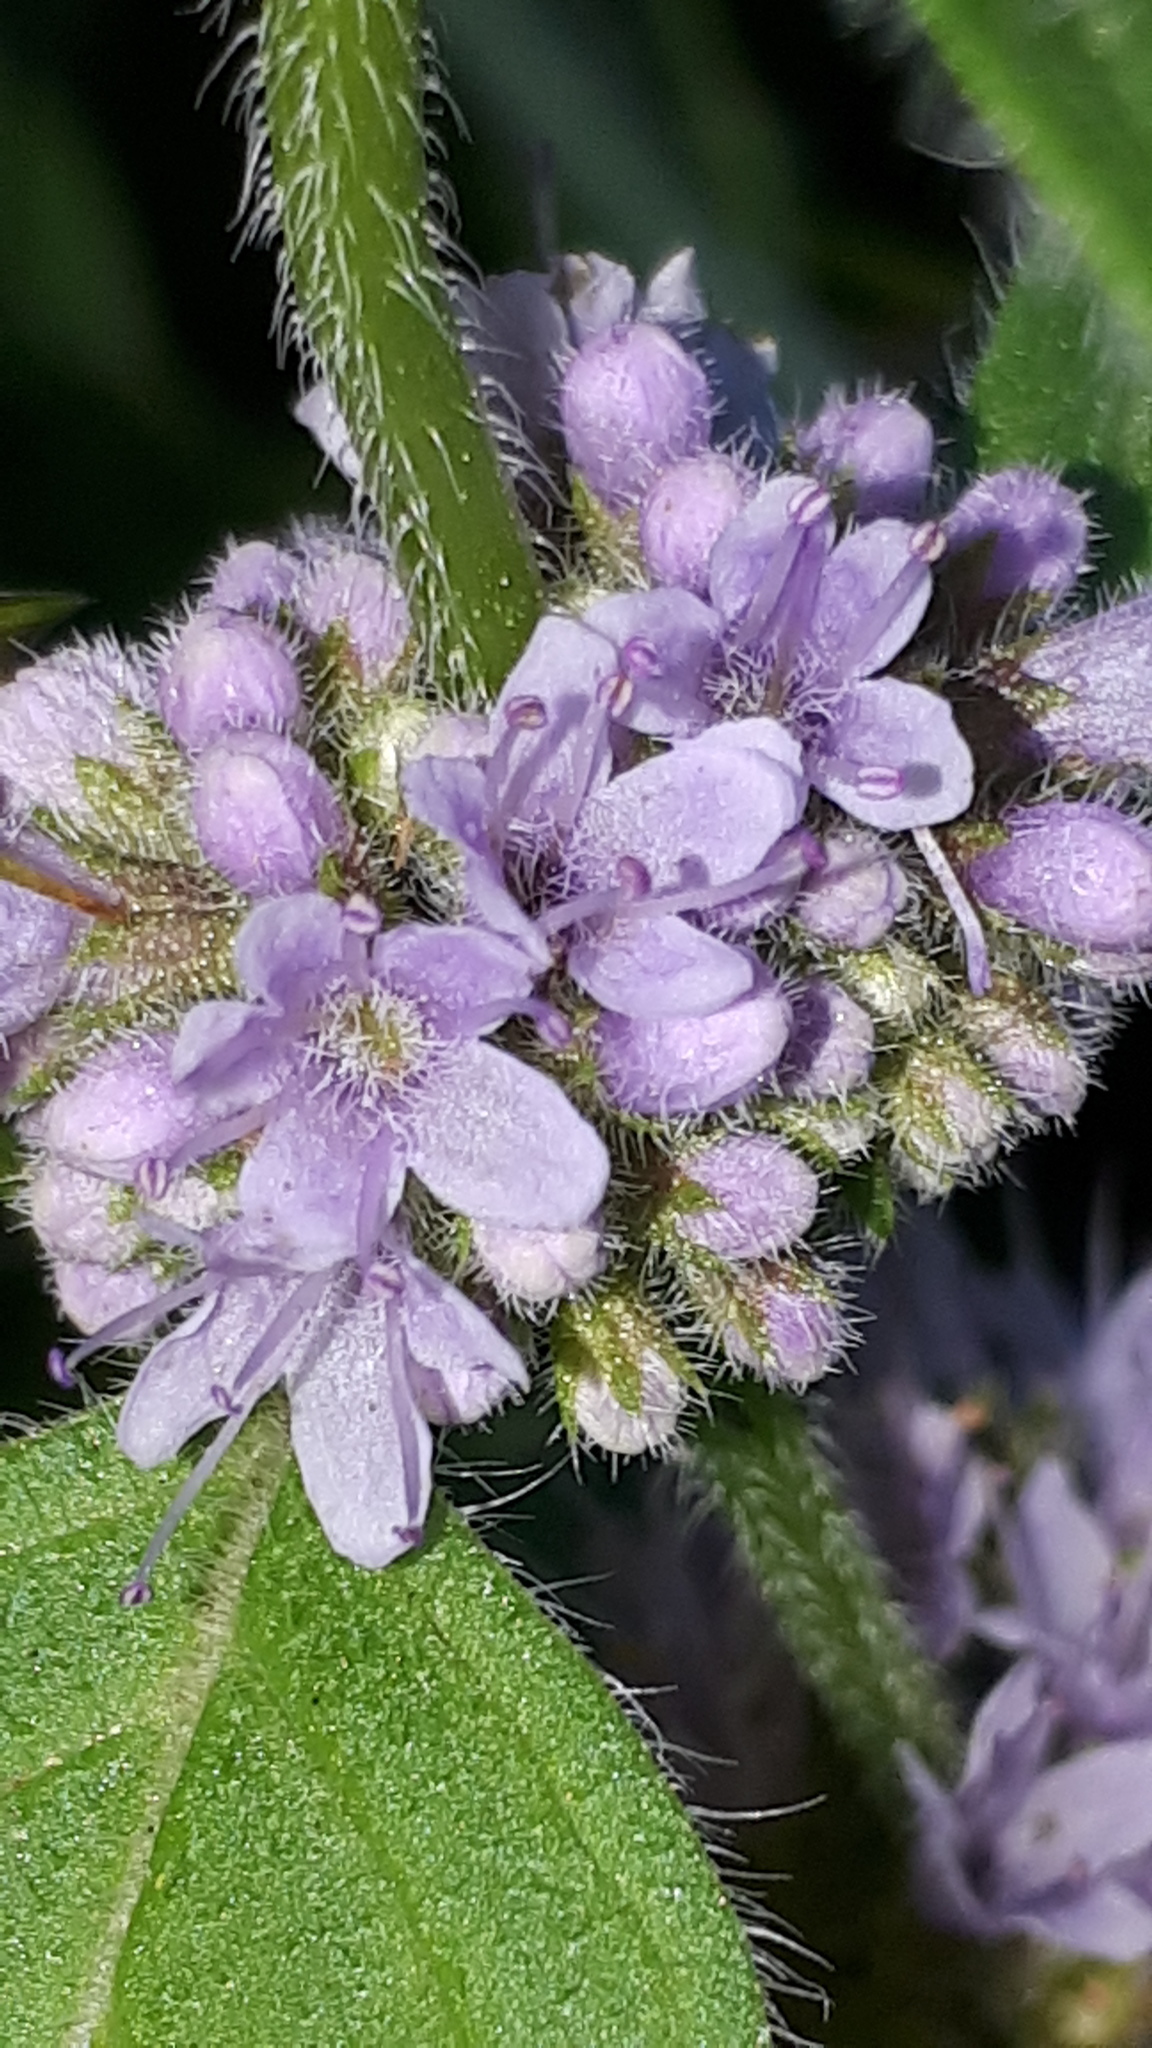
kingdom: Plantae
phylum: Tracheophyta
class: Magnoliopsida
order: Lamiales
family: Lamiaceae
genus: Mentha
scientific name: Mentha arvensis
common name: Corn mint
